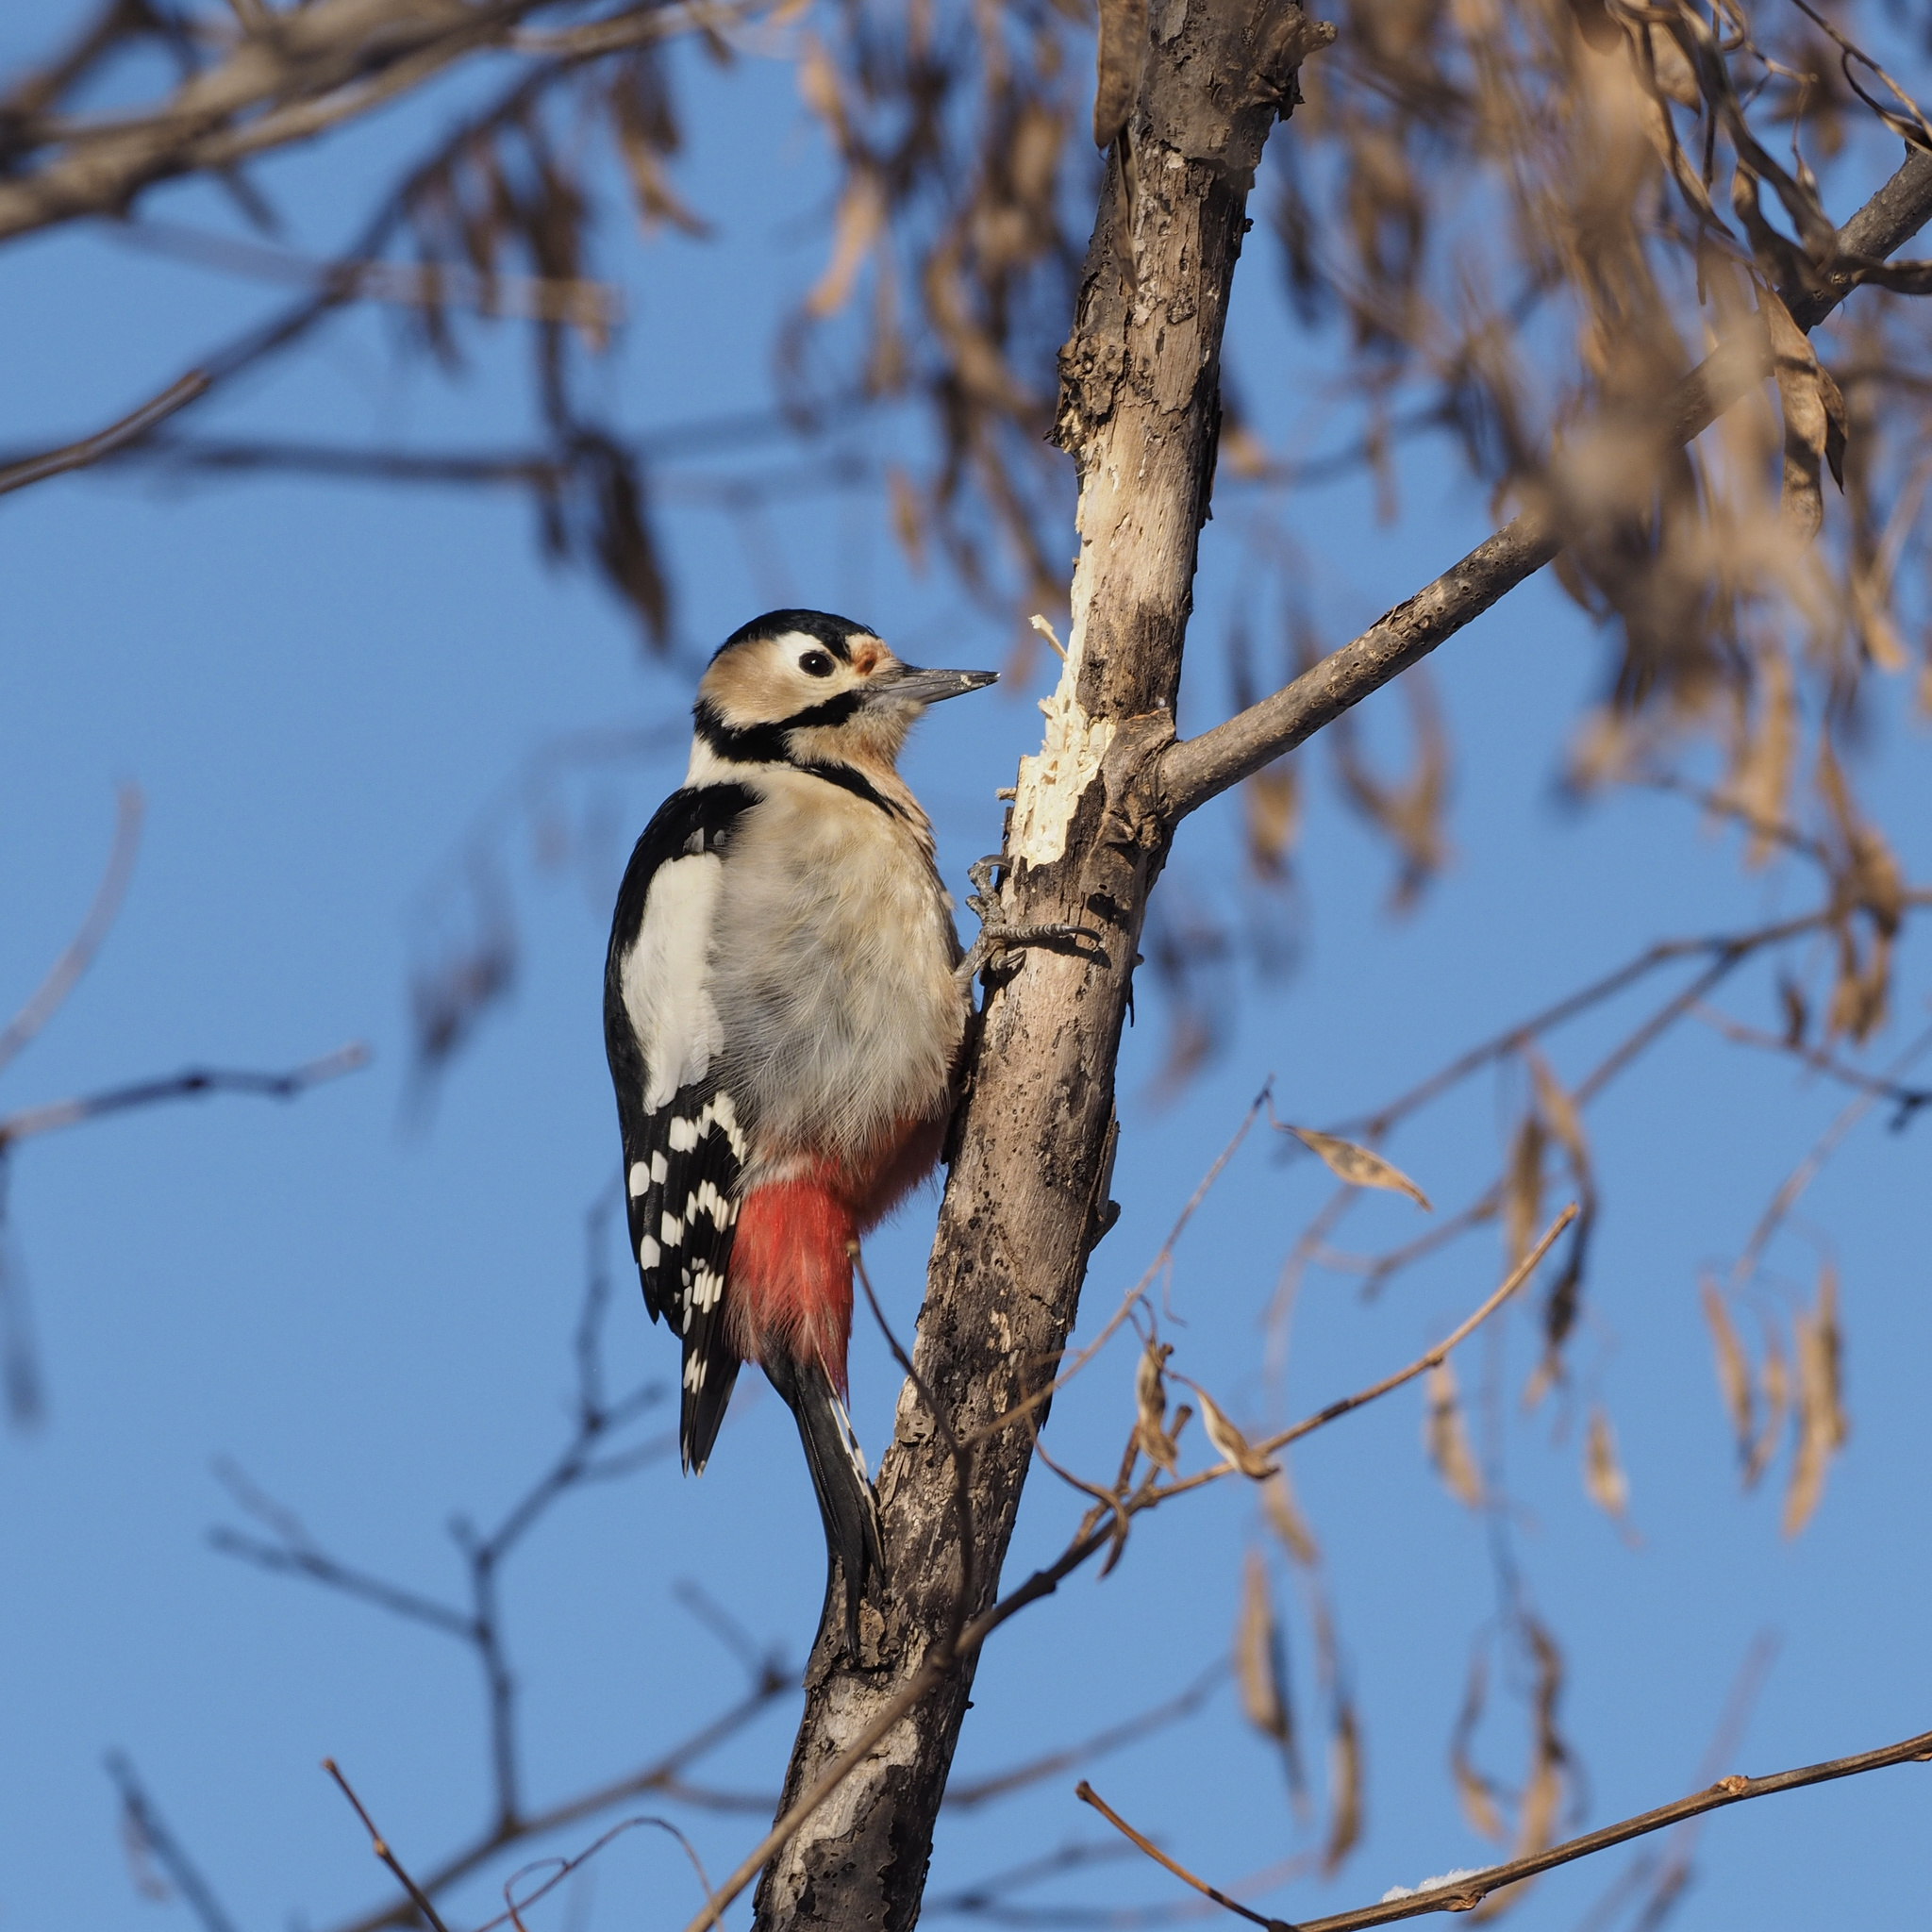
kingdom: Animalia
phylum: Chordata
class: Aves
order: Piciformes
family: Picidae
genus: Dendrocopos
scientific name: Dendrocopos major
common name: Great spotted woodpecker
